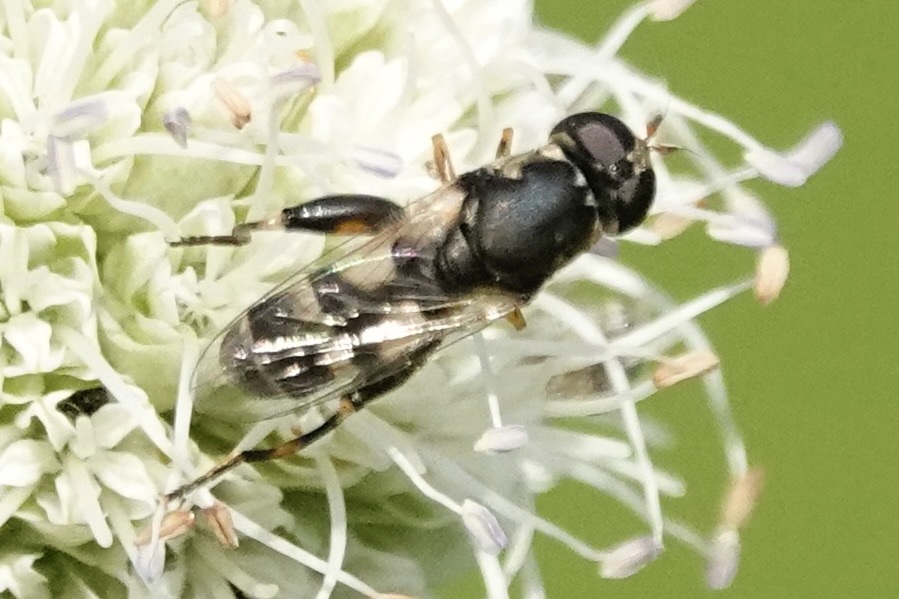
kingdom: Animalia
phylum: Arthropoda
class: Insecta
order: Diptera
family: Syrphidae
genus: Syritta
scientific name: Syritta pipiens
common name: Hover fly
